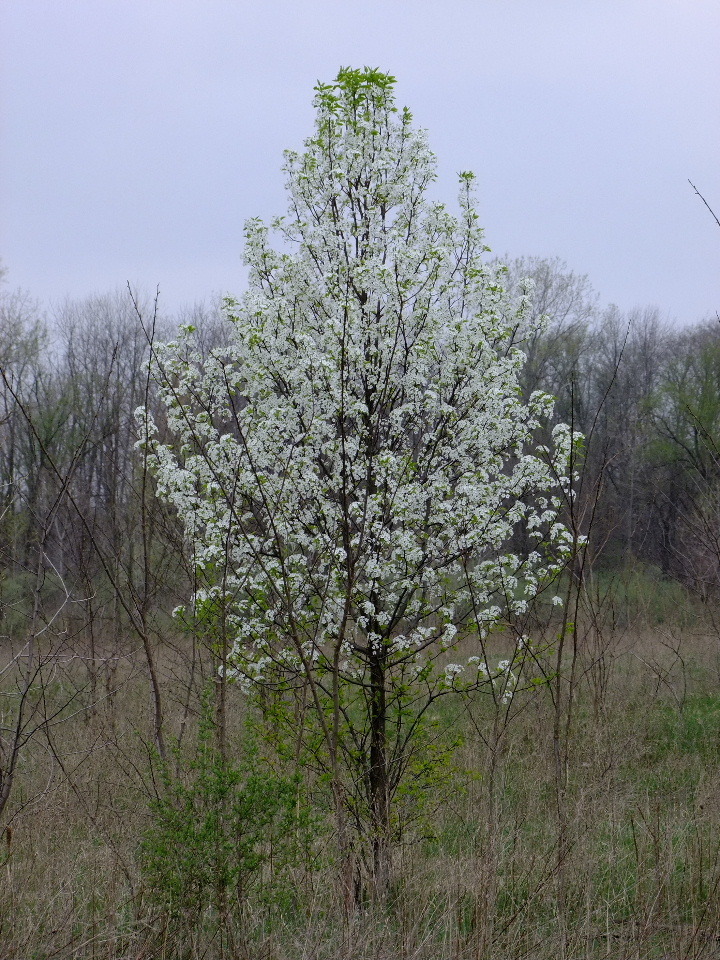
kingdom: Plantae
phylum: Tracheophyta
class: Magnoliopsida
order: Rosales
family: Rosaceae
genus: Pyrus
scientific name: Pyrus calleryana
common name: Callery pear
